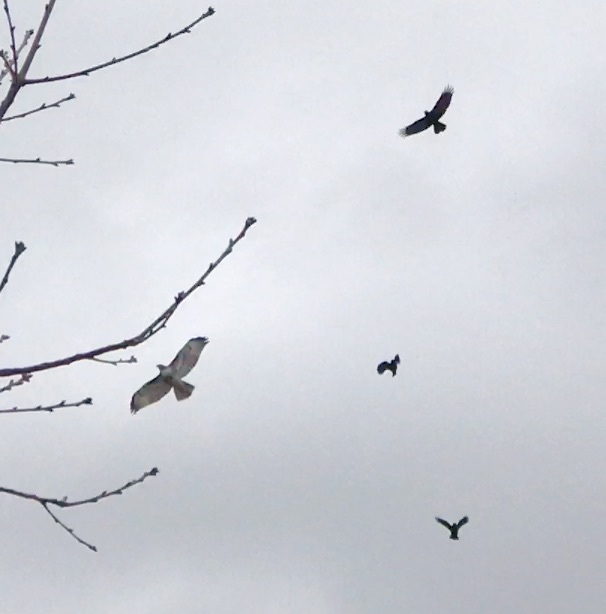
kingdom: Animalia
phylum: Chordata
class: Aves
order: Accipitriformes
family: Accipitridae
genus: Buteo
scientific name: Buteo jamaicensis
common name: Red-tailed hawk
